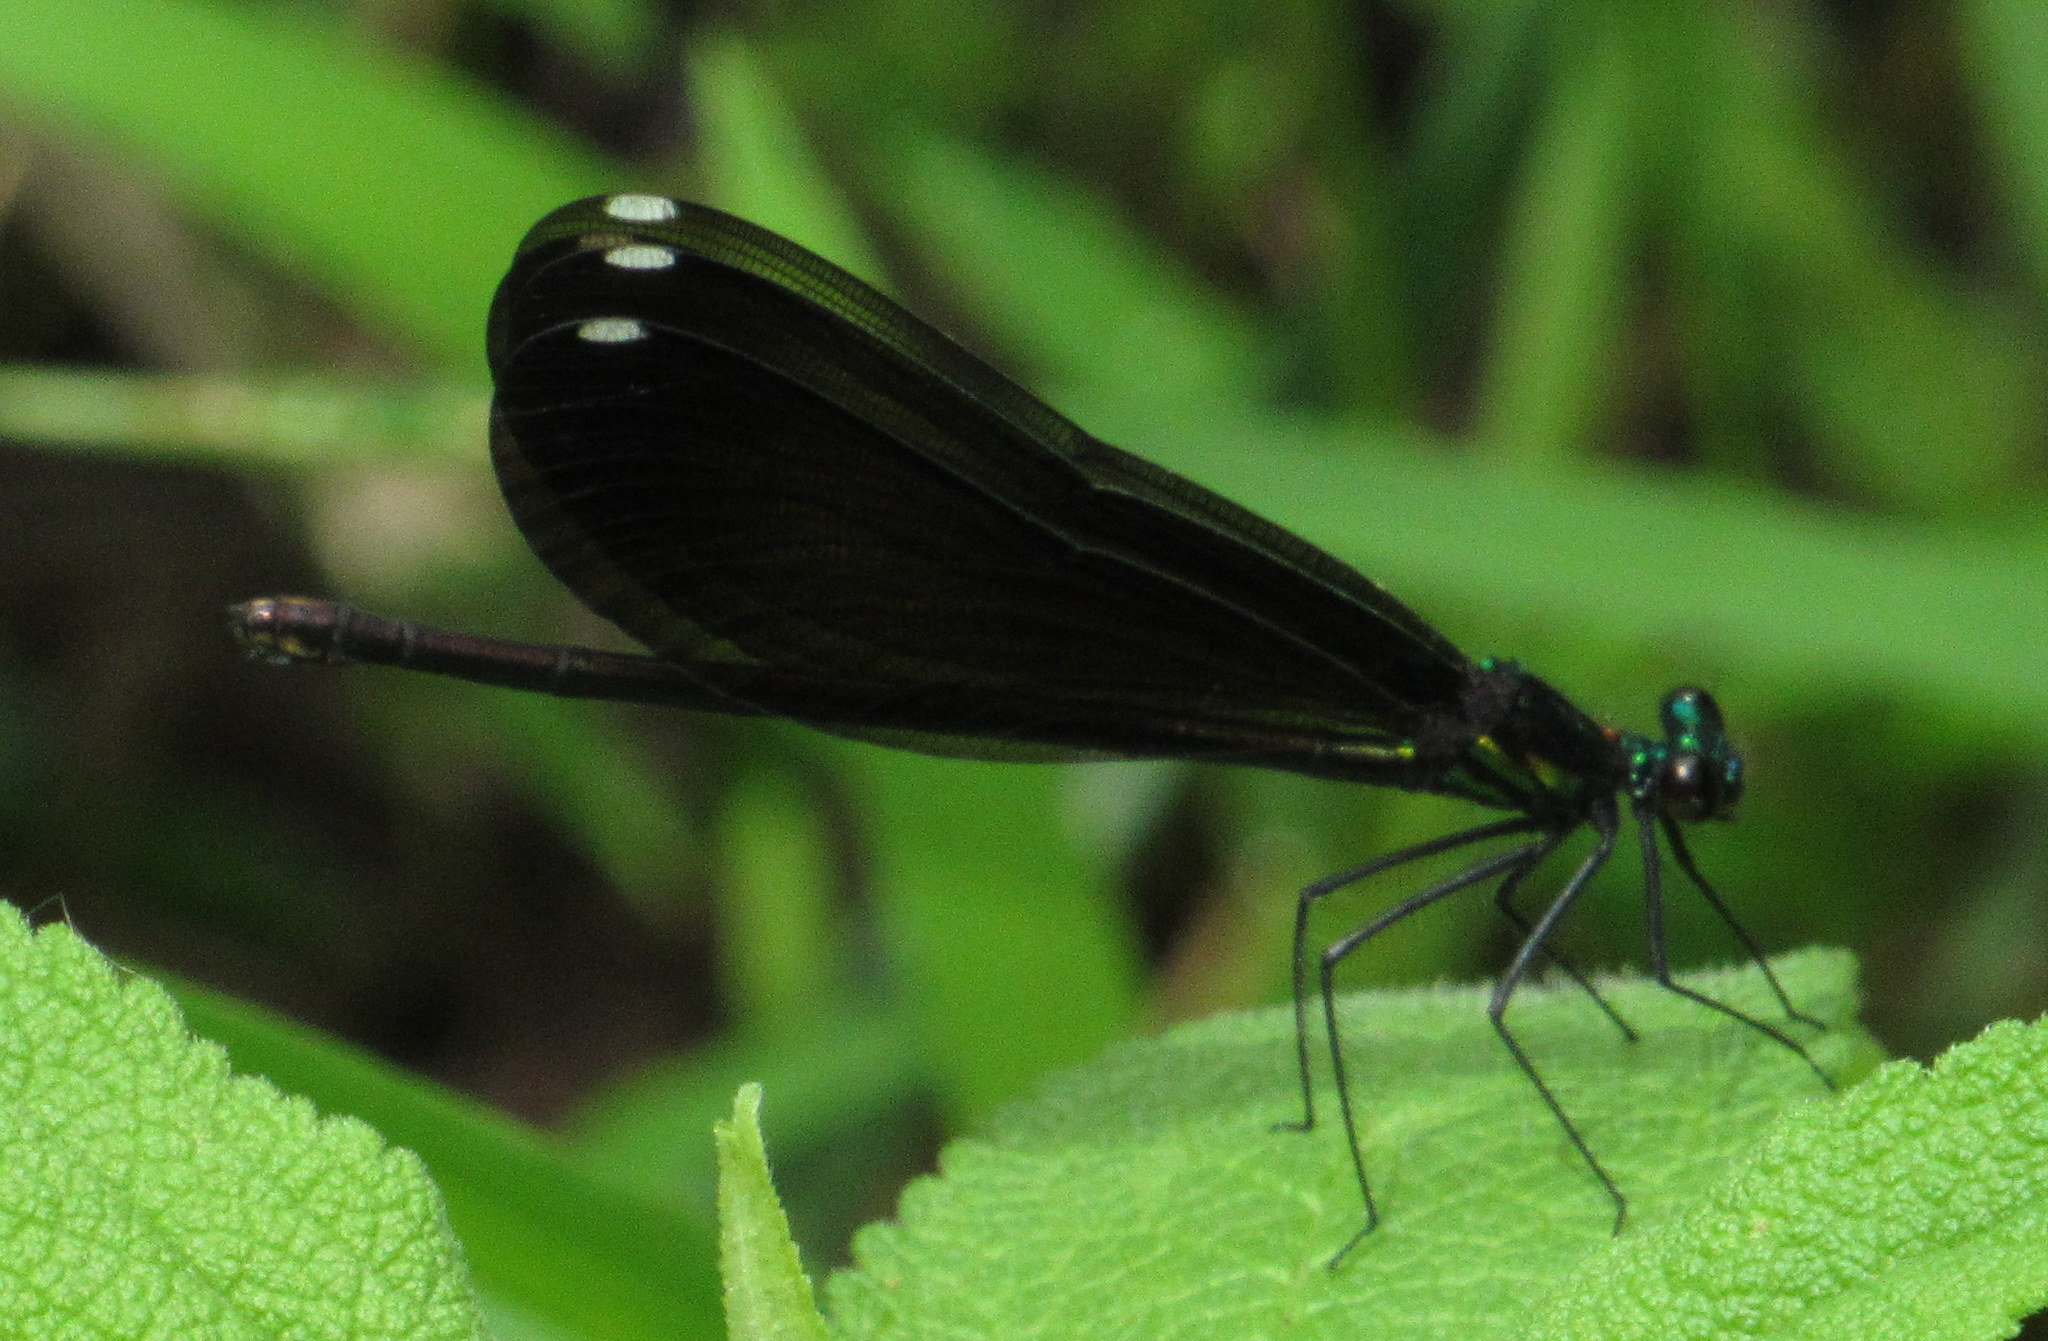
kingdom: Animalia
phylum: Arthropoda
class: Insecta
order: Odonata
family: Calopterygidae
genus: Calopteryx
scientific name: Calopteryx maculata
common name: Ebony jewelwing
